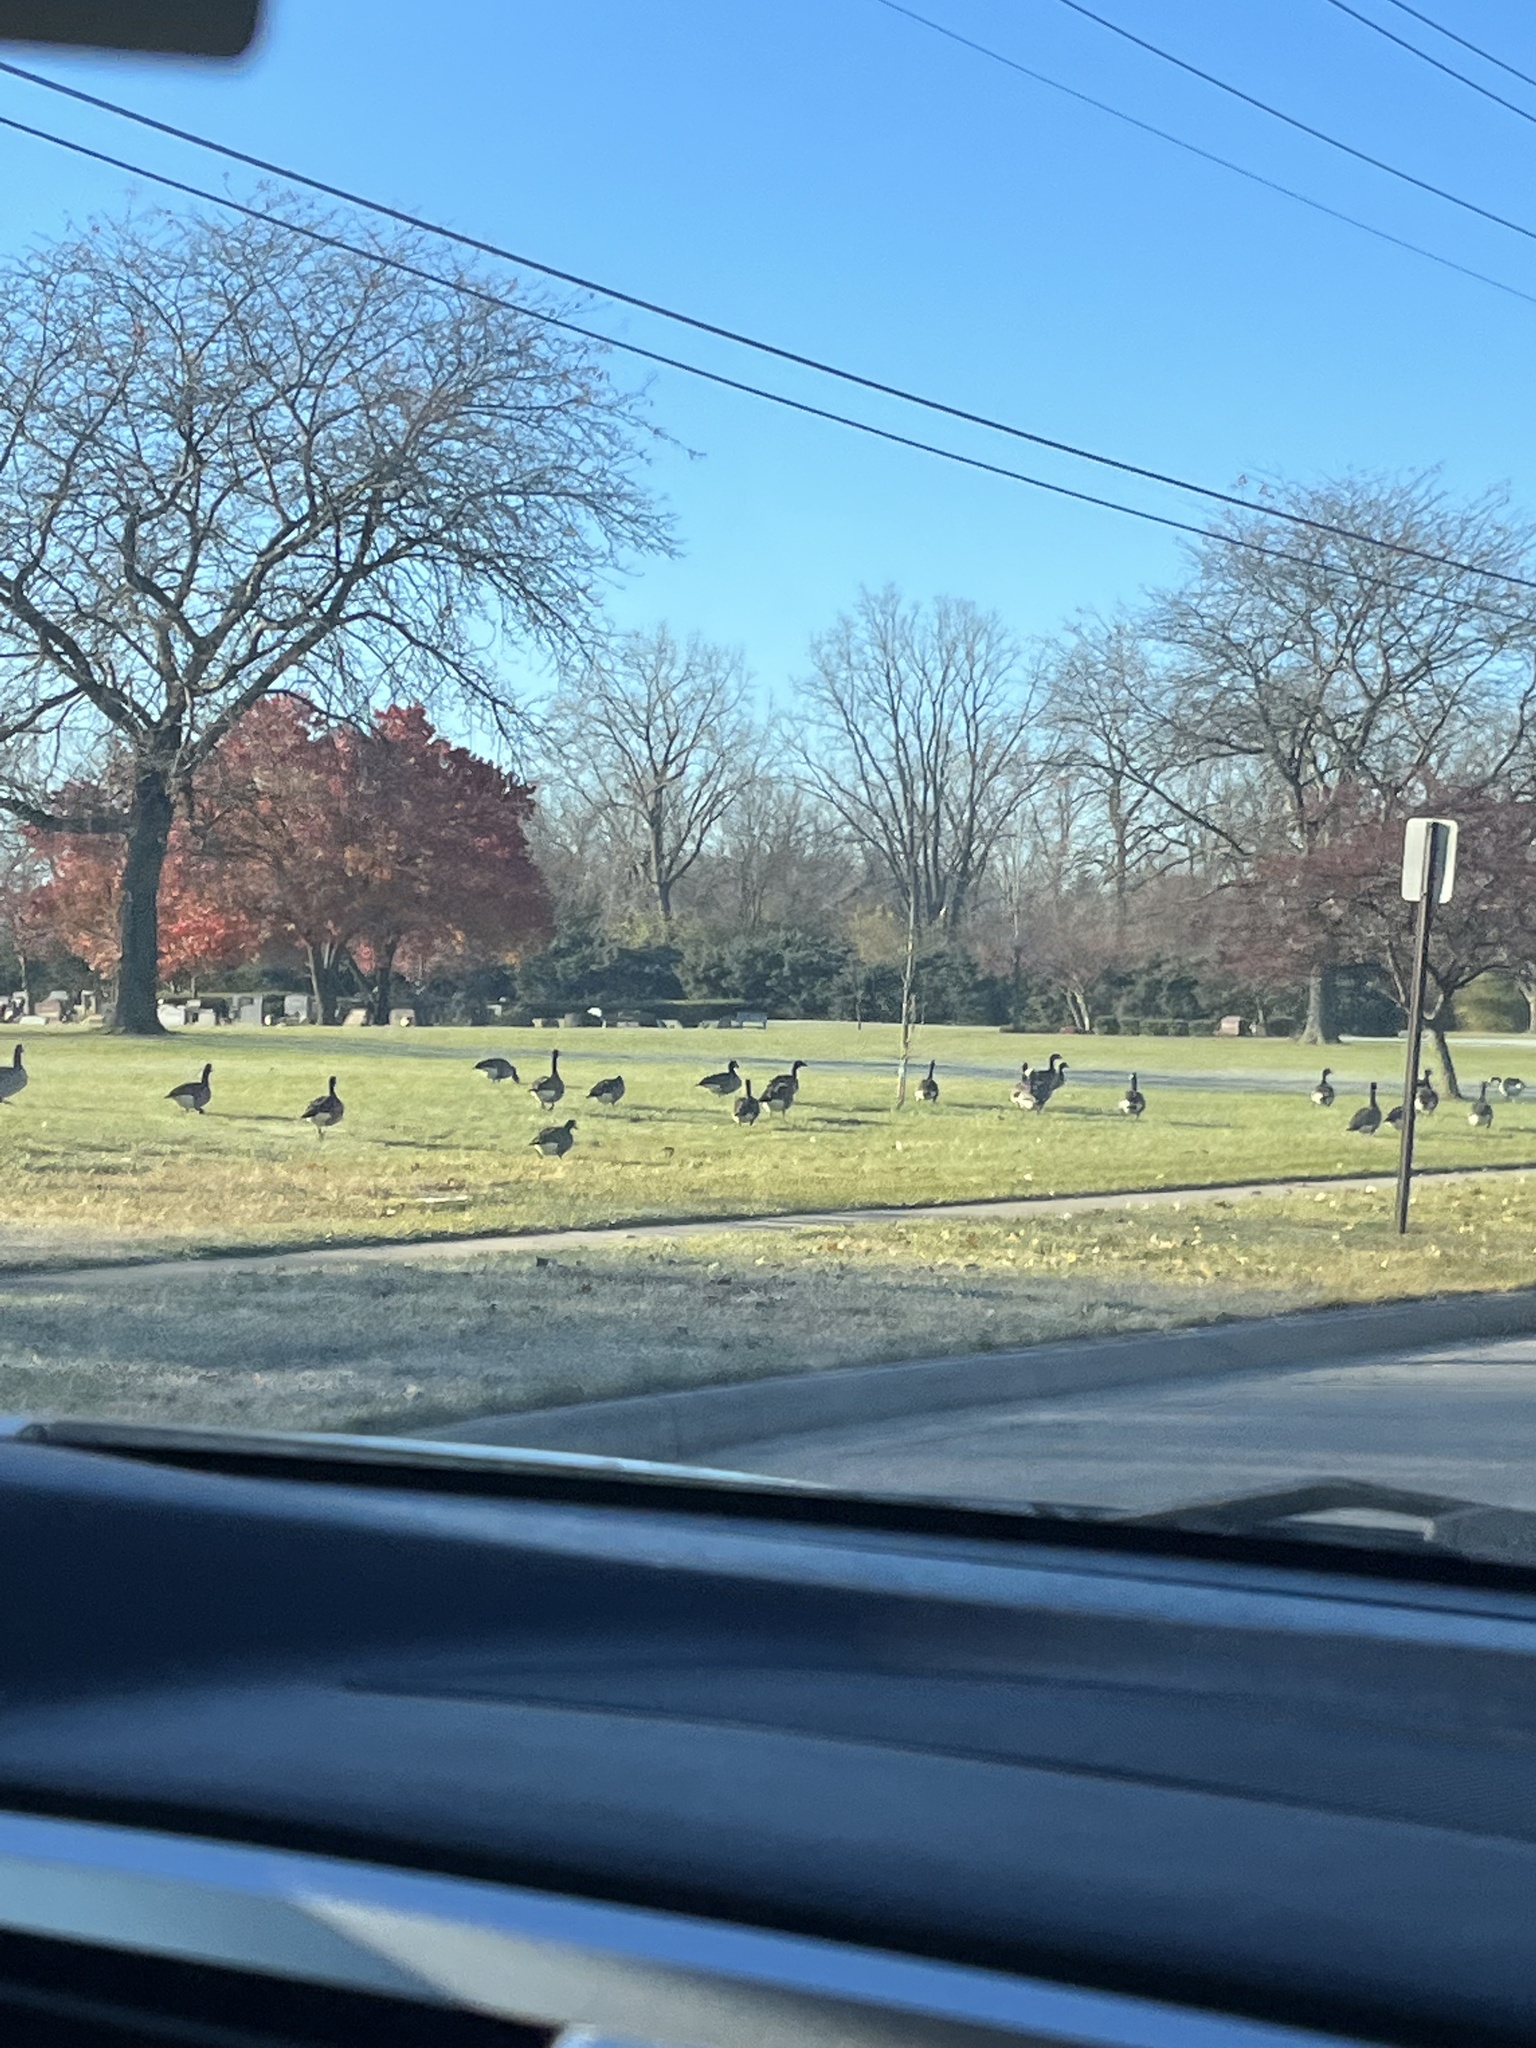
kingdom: Animalia
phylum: Chordata
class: Aves
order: Anseriformes
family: Anatidae
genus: Branta
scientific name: Branta canadensis
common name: Canada goose
